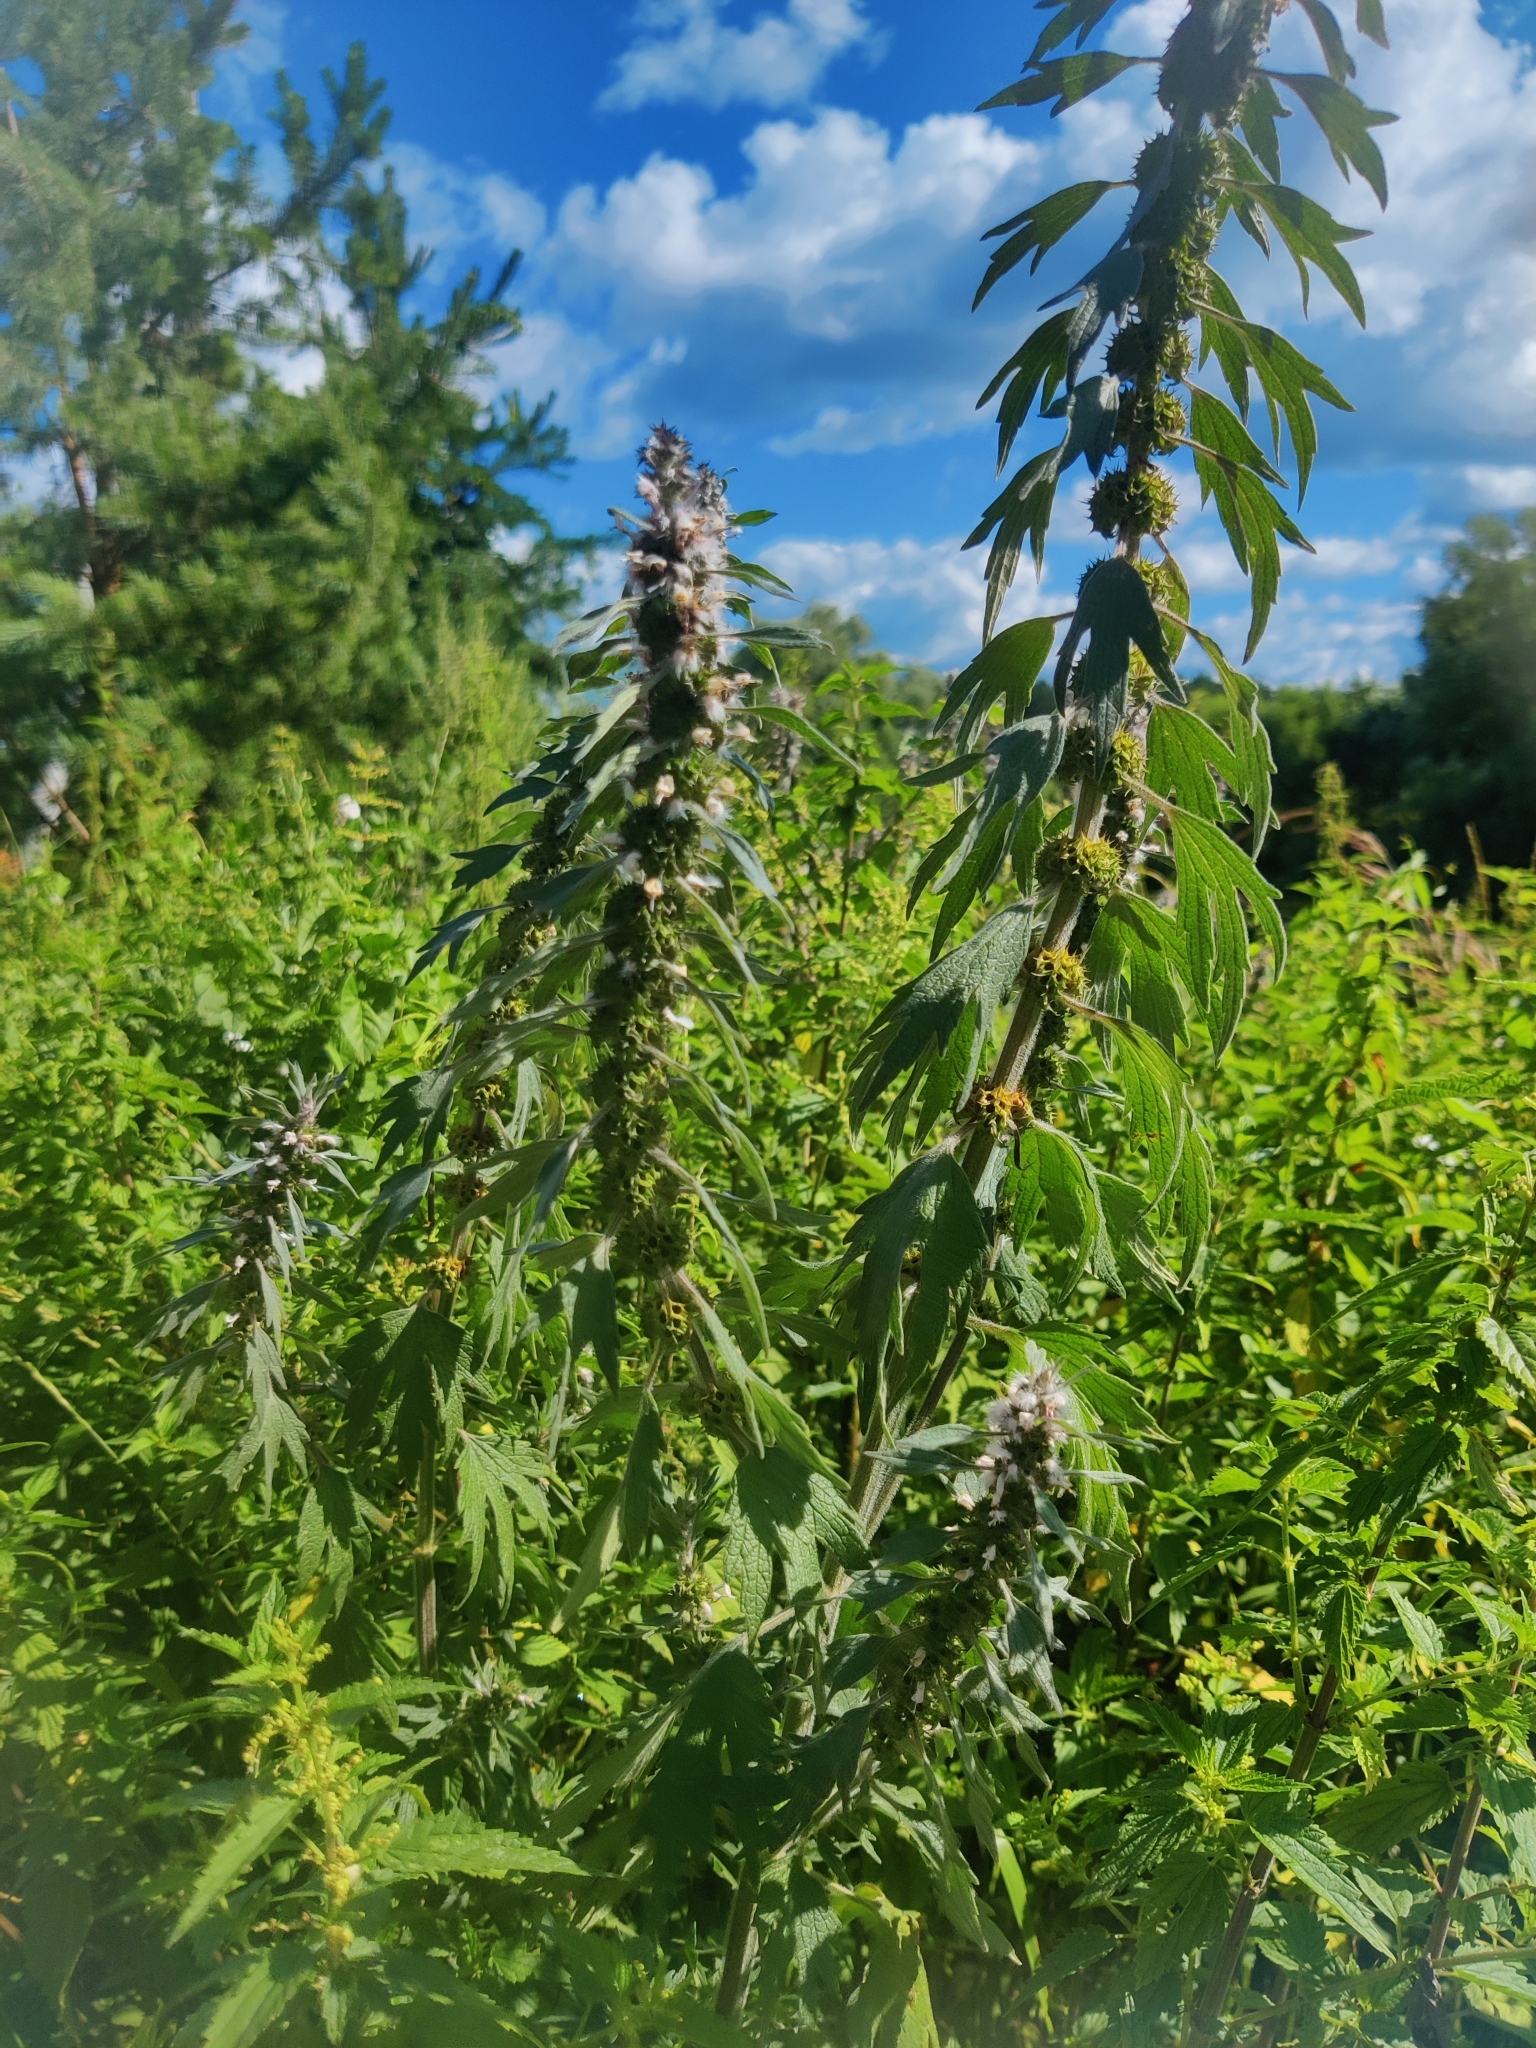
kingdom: Plantae
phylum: Tracheophyta
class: Magnoliopsida
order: Lamiales
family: Lamiaceae
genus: Leonurus
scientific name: Leonurus quinquelobatus
